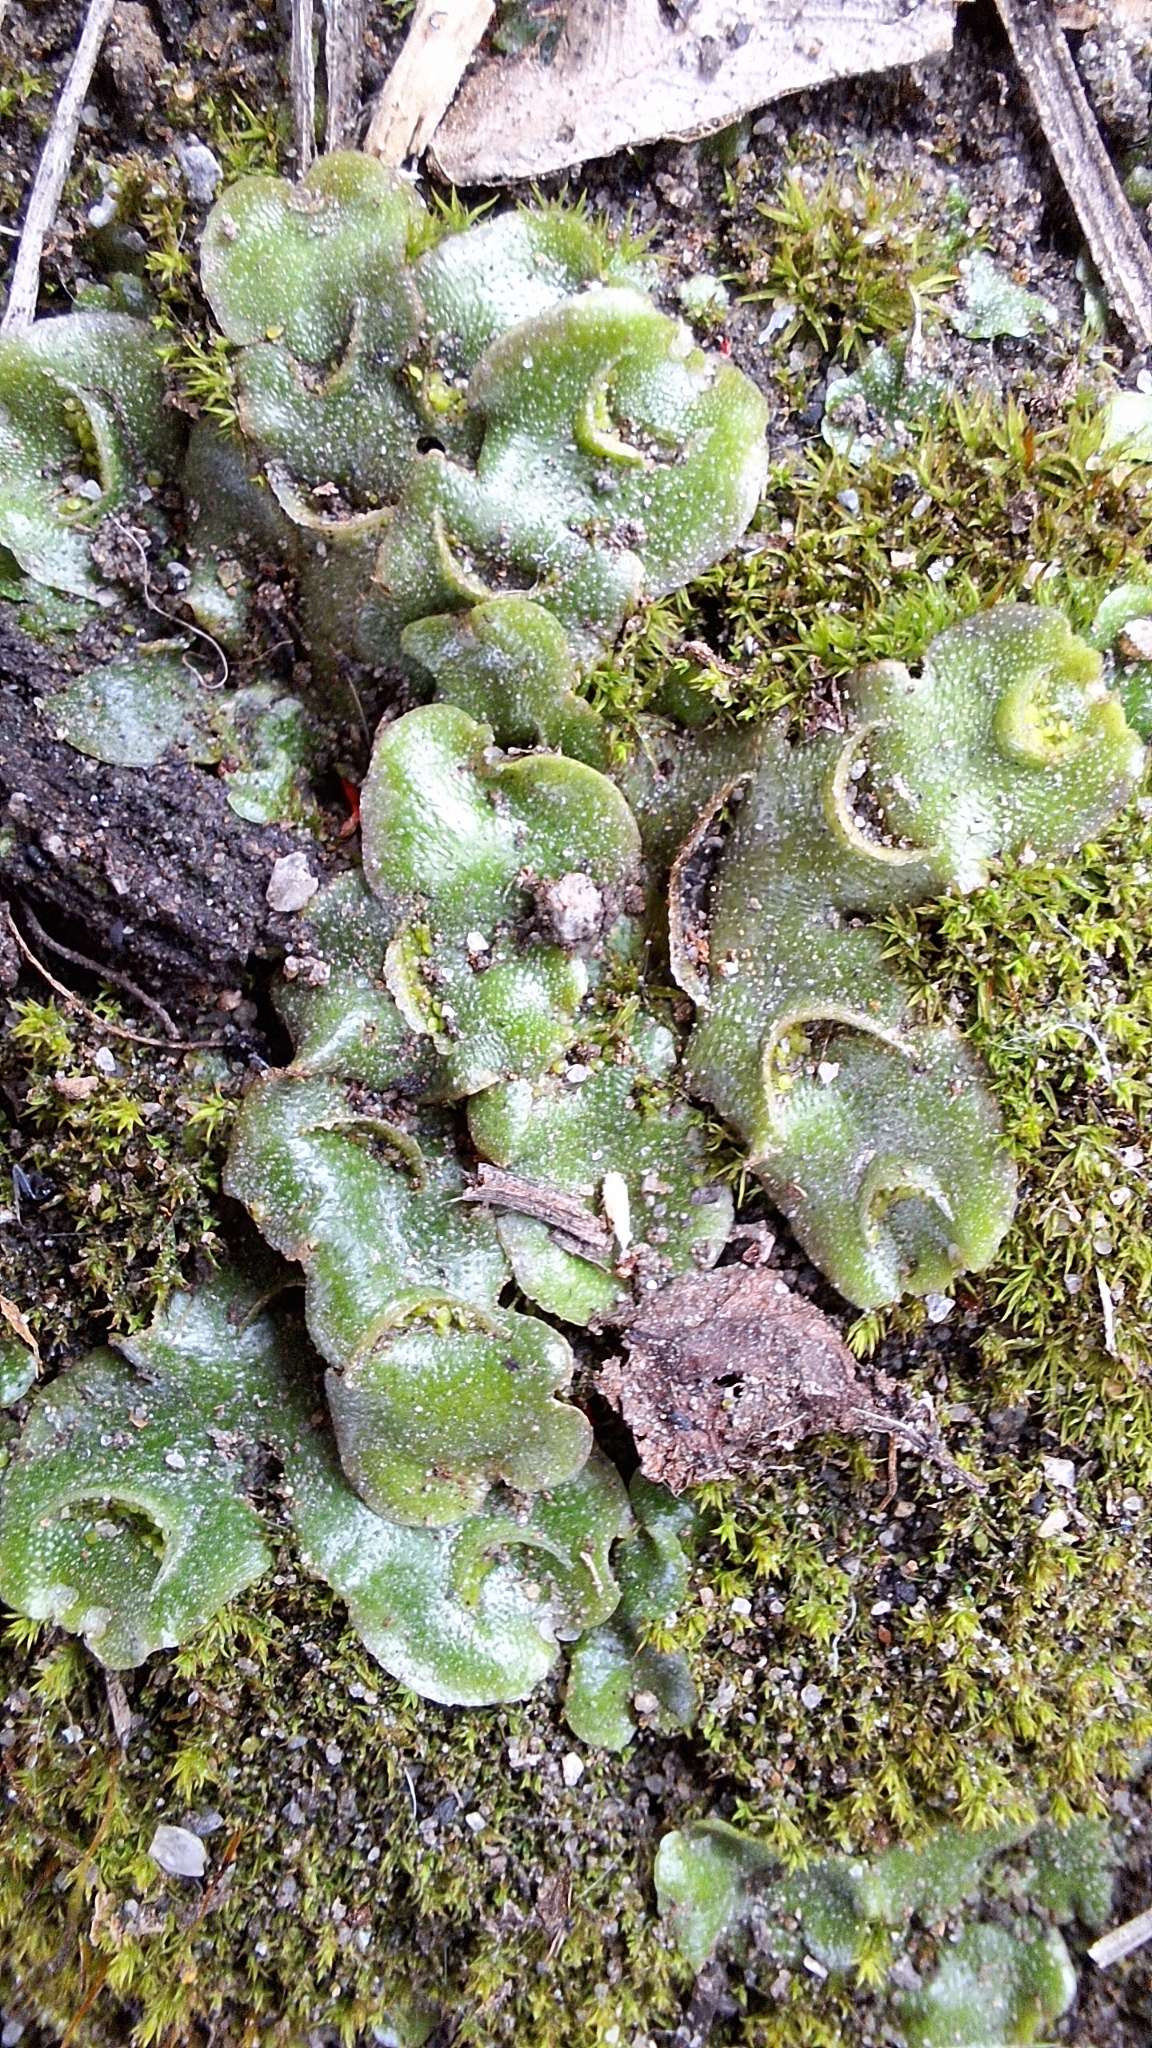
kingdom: Plantae
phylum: Marchantiophyta
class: Marchantiopsida
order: Lunulariales
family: Lunulariaceae
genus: Lunularia
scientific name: Lunularia cruciata
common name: Crescent-cup liverwort
